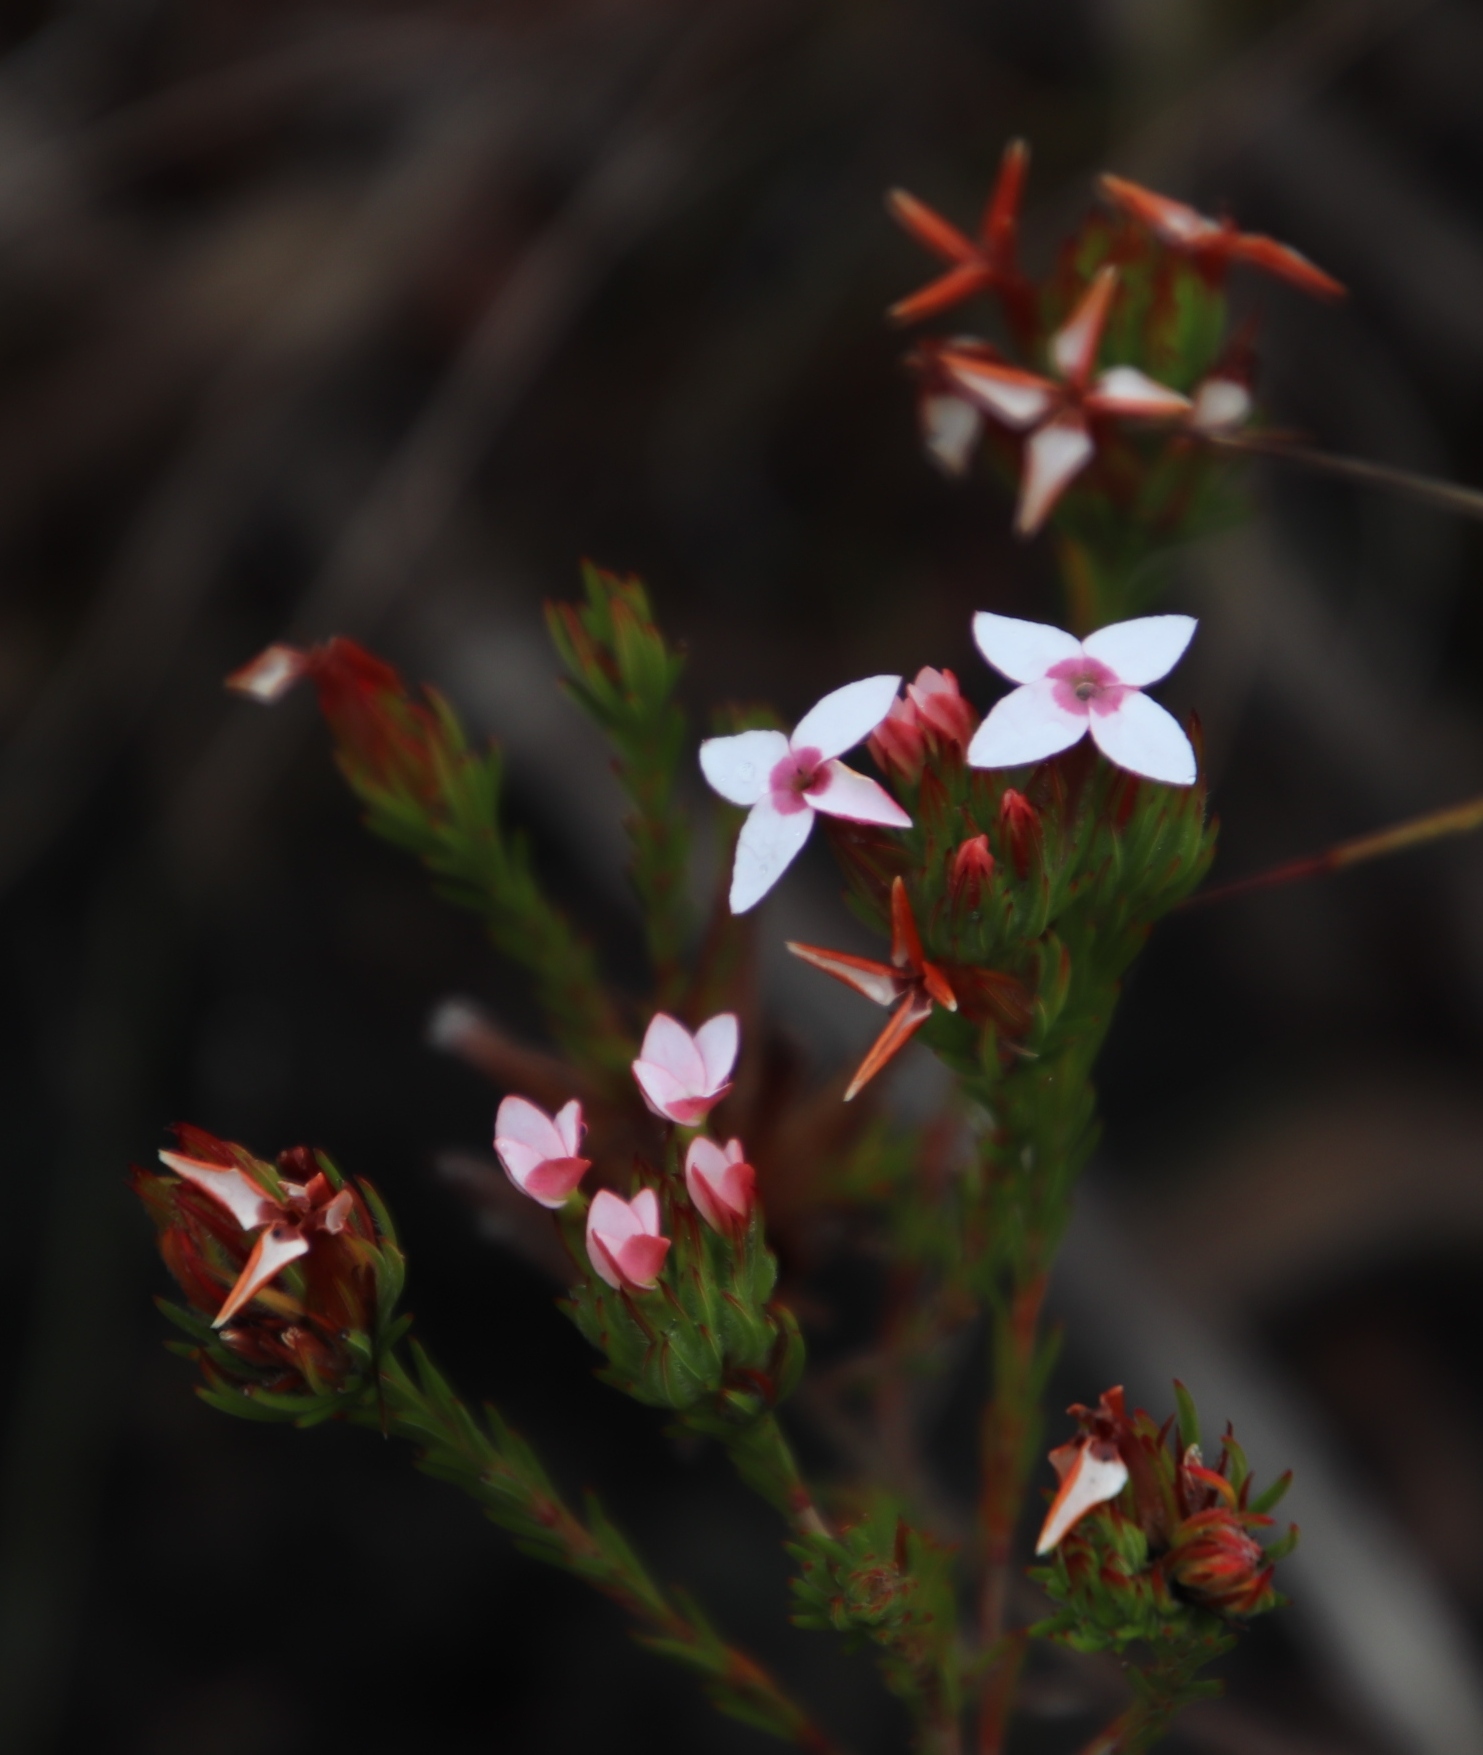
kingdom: Plantae
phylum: Tracheophyta
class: Magnoliopsida
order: Ericales
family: Ericaceae
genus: Erica
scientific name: Erica fastigiata
